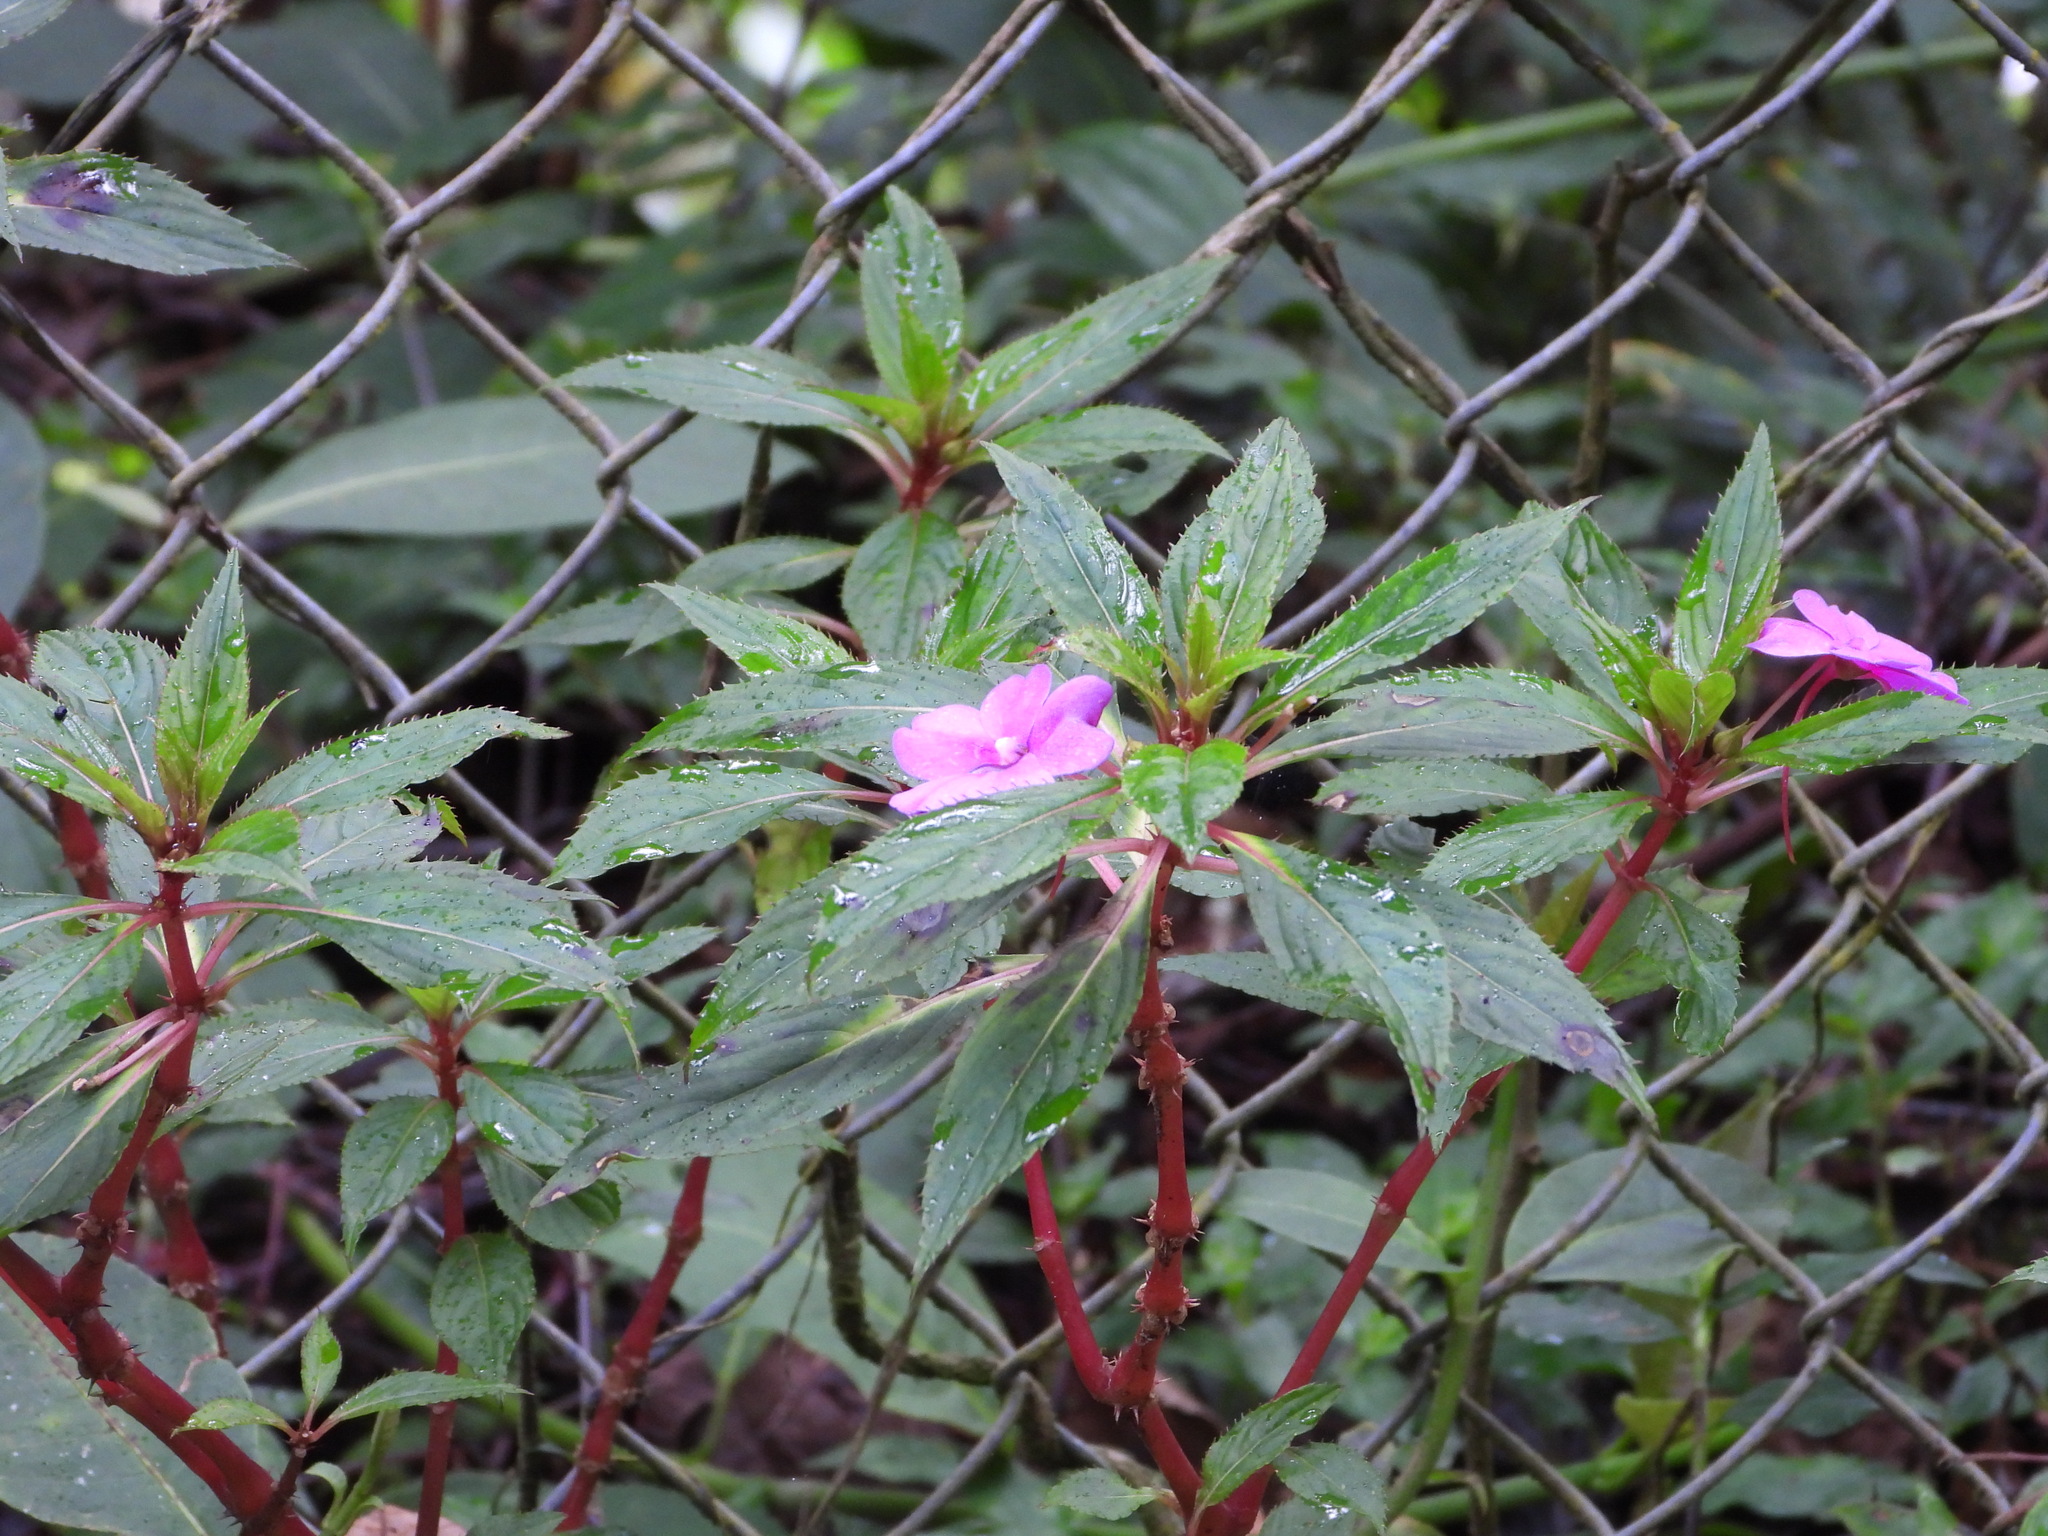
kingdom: Plantae
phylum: Tracheophyta
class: Magnoliopsida
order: Ericales
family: Balsaminaceae
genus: Impatiens
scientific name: Impatiens hawkeri
